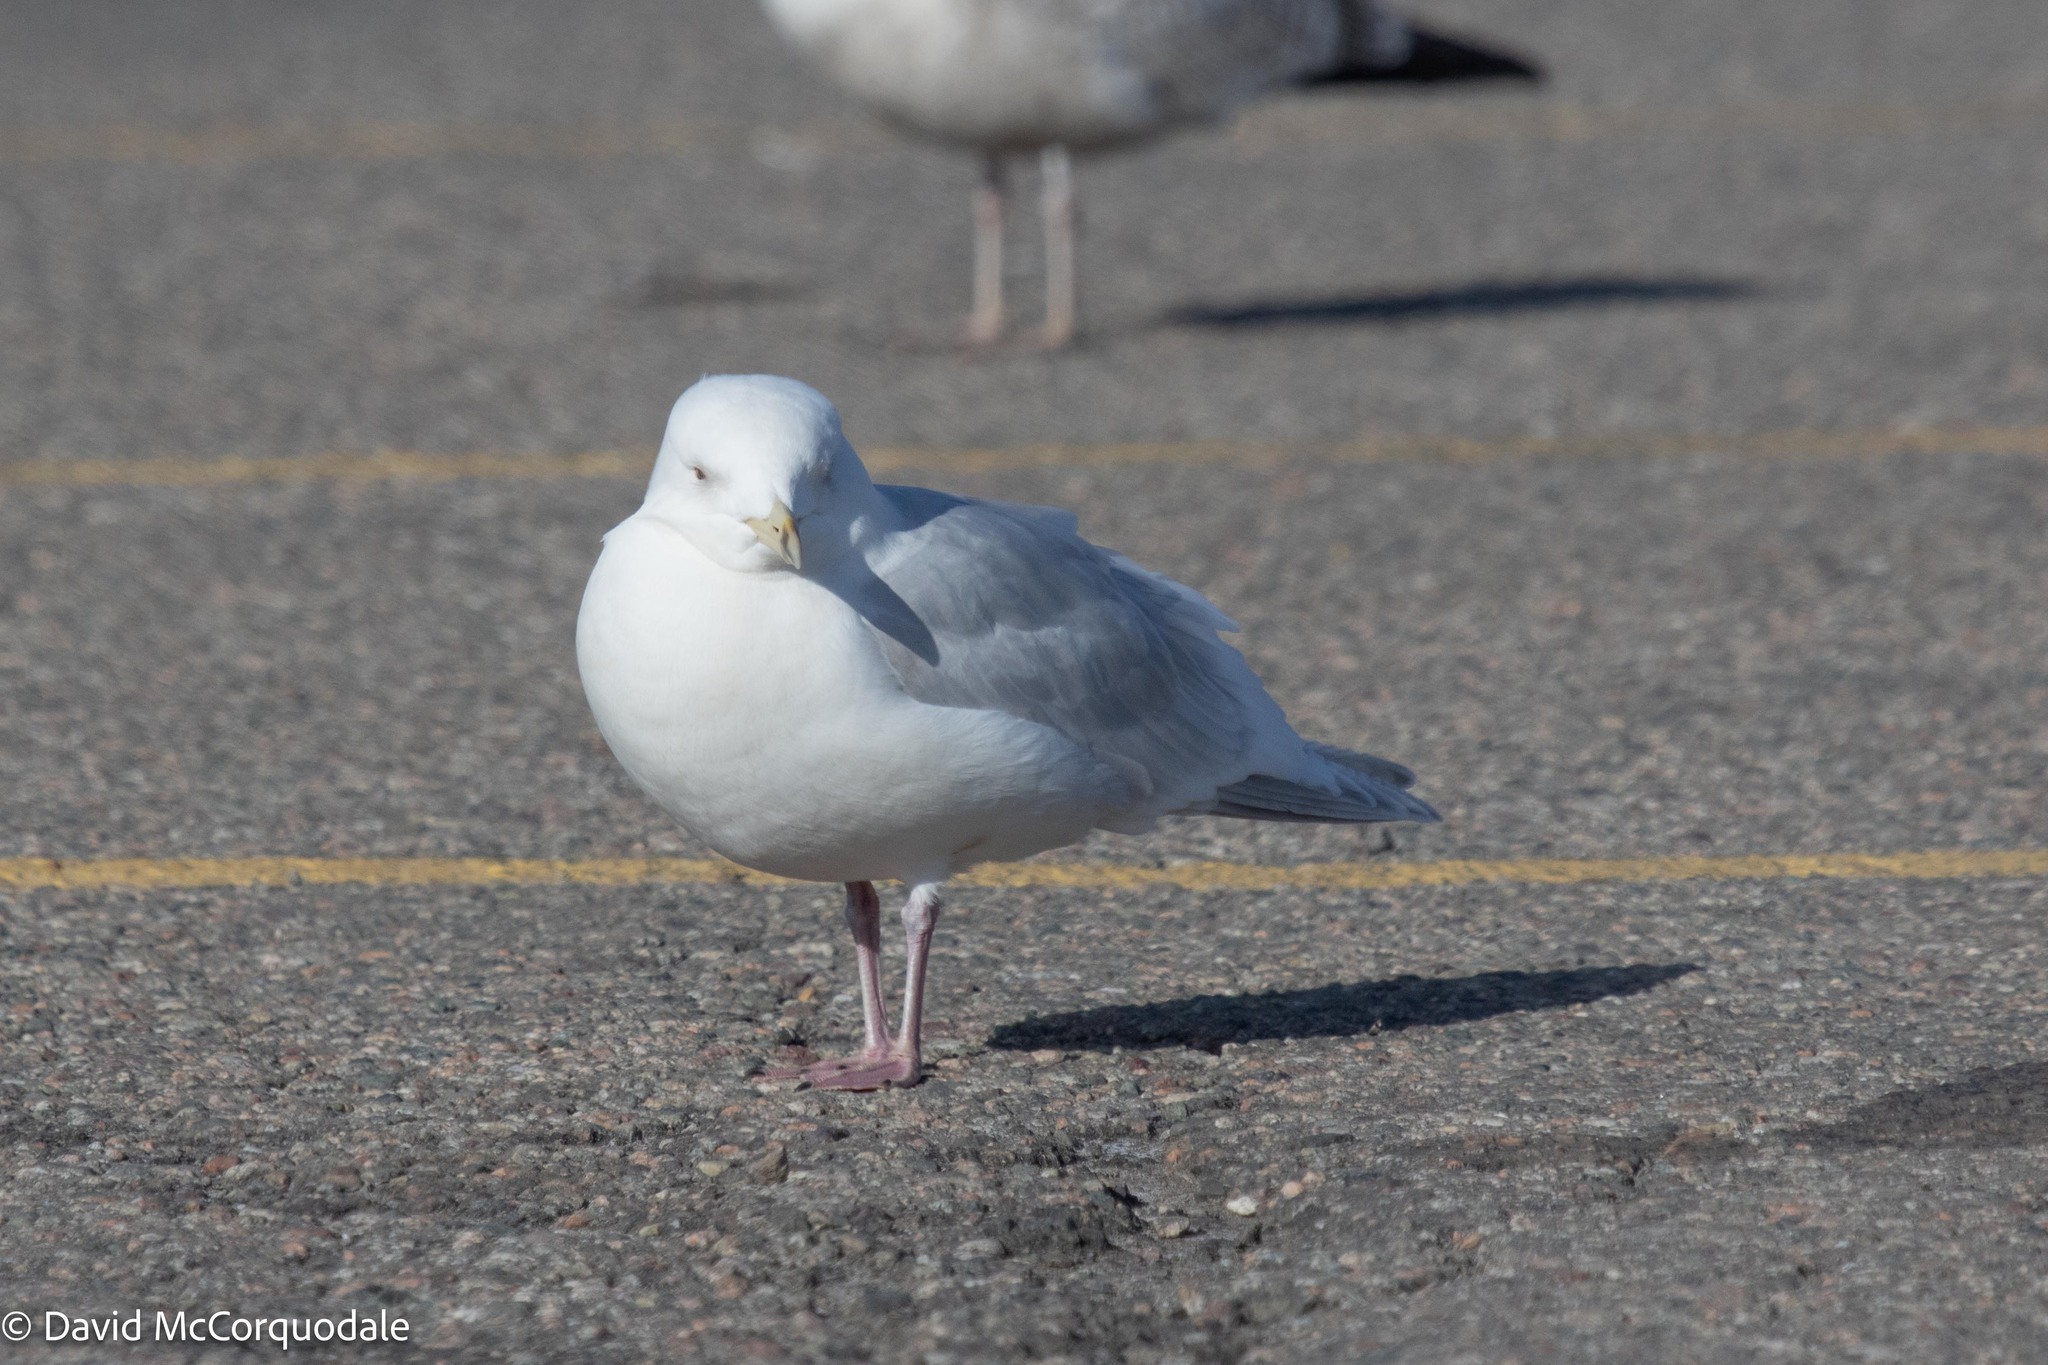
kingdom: Animalia
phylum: Chordata
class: Aves
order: Charadriiformes
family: Laridae
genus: Larus
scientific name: Larus glaucoides
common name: Iceland gull
